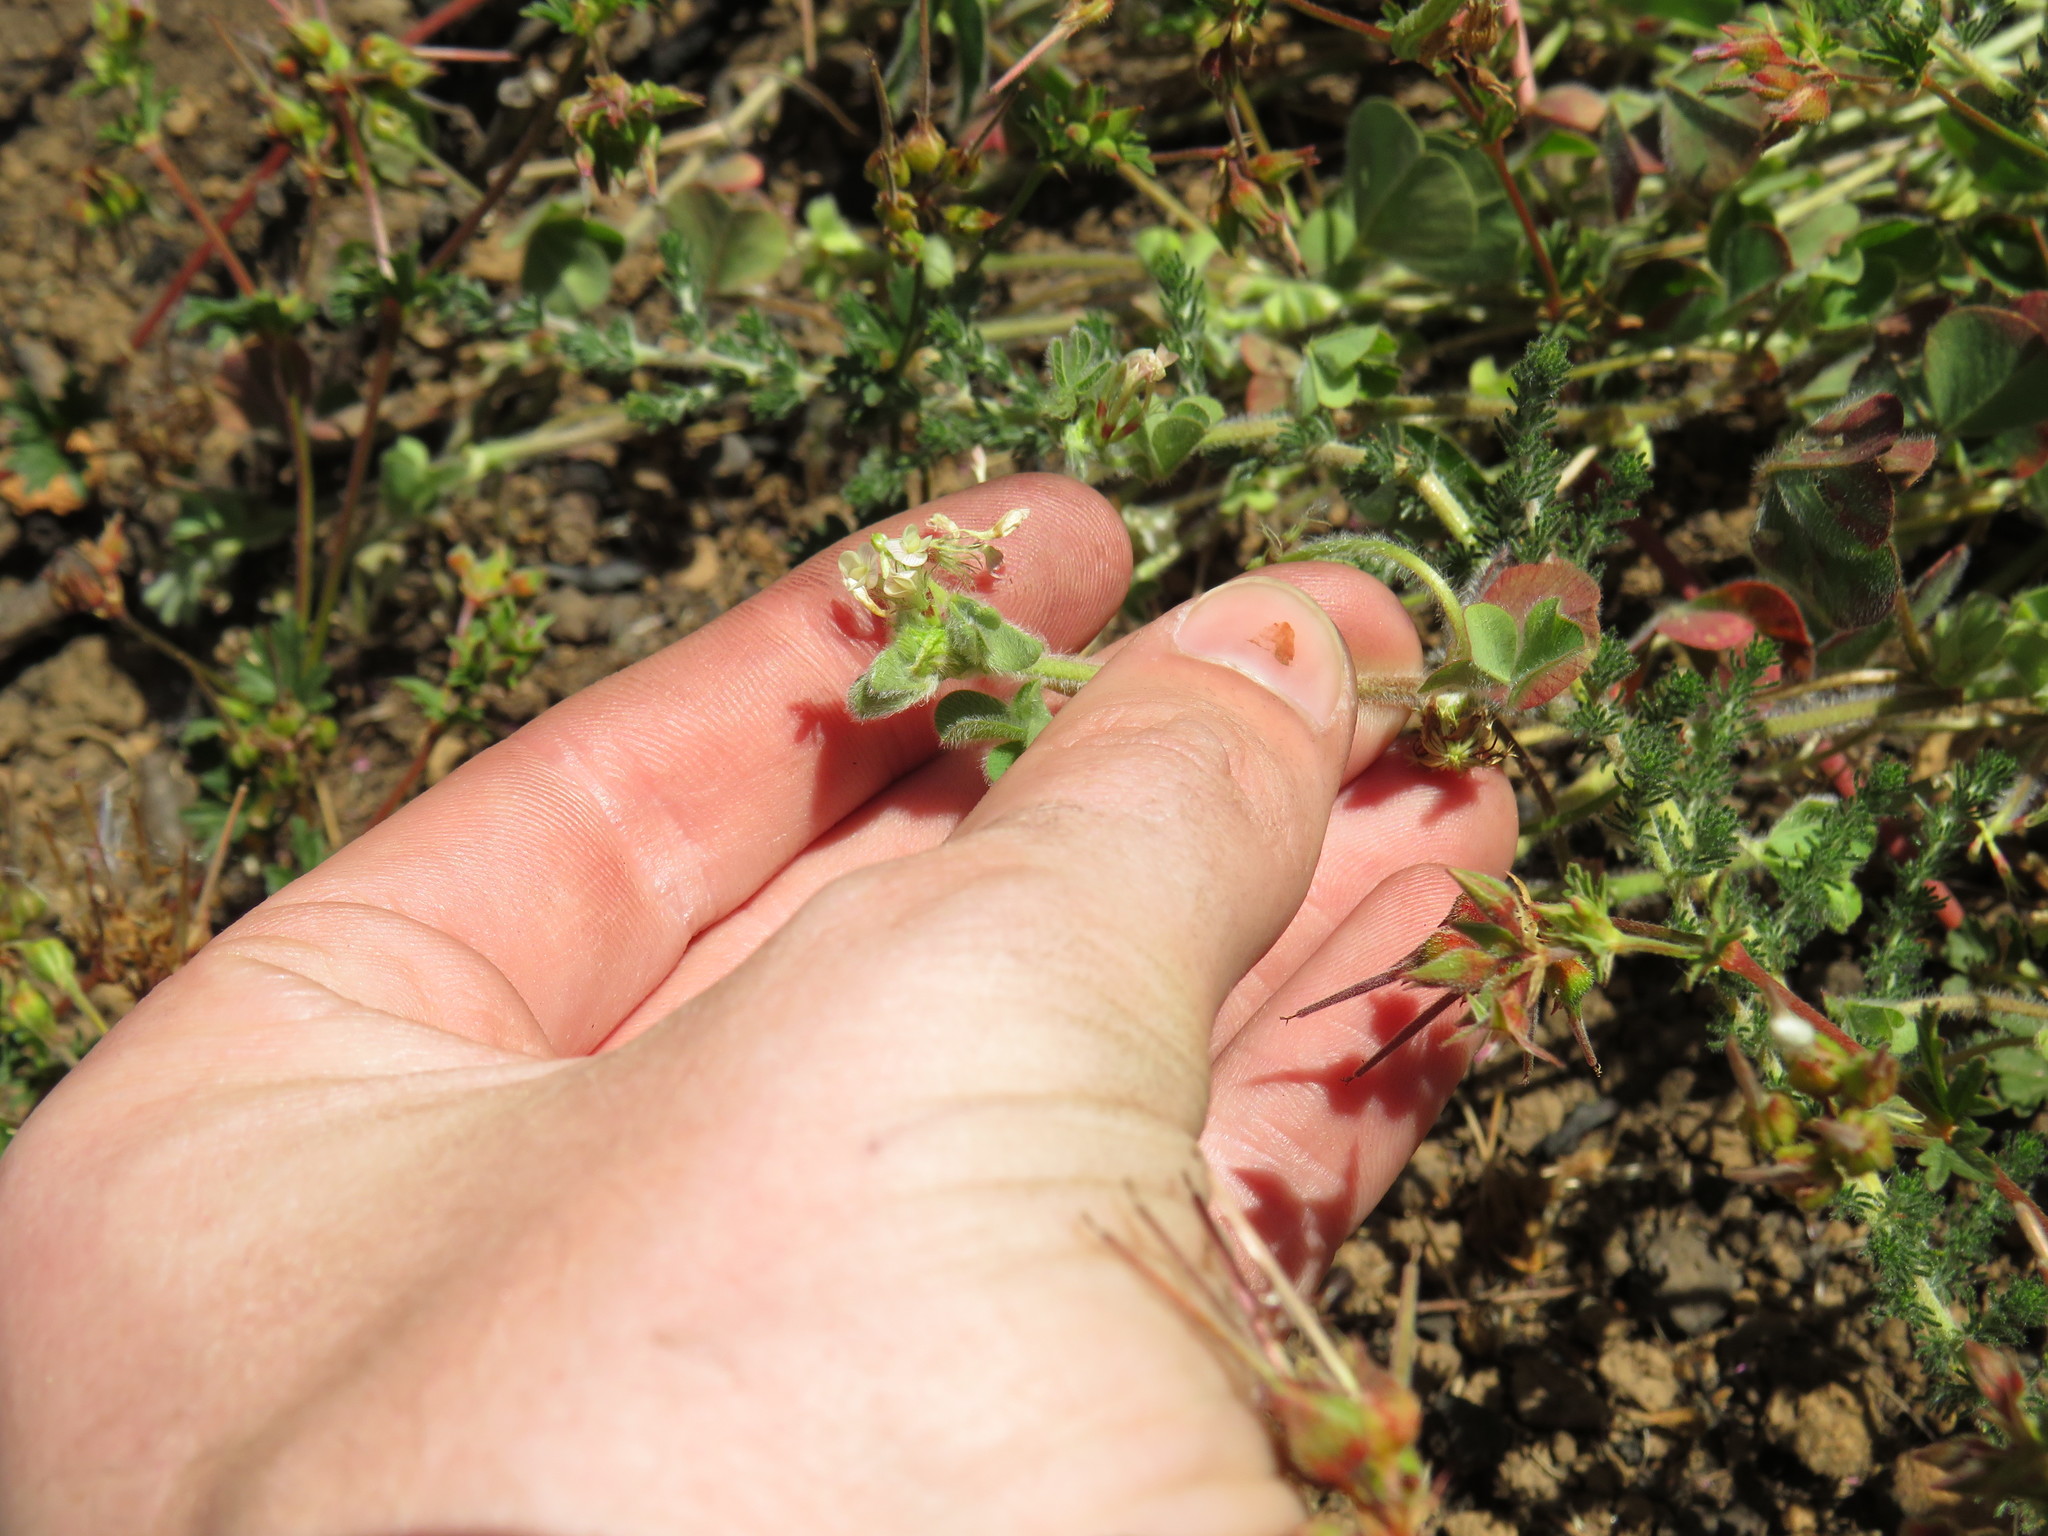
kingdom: Plantae
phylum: Tracheophyta
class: Magnoliopsida
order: Fabales
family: Fabaceae
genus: Trifolium
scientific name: Trifolium subterraneum
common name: Subterranean clover
